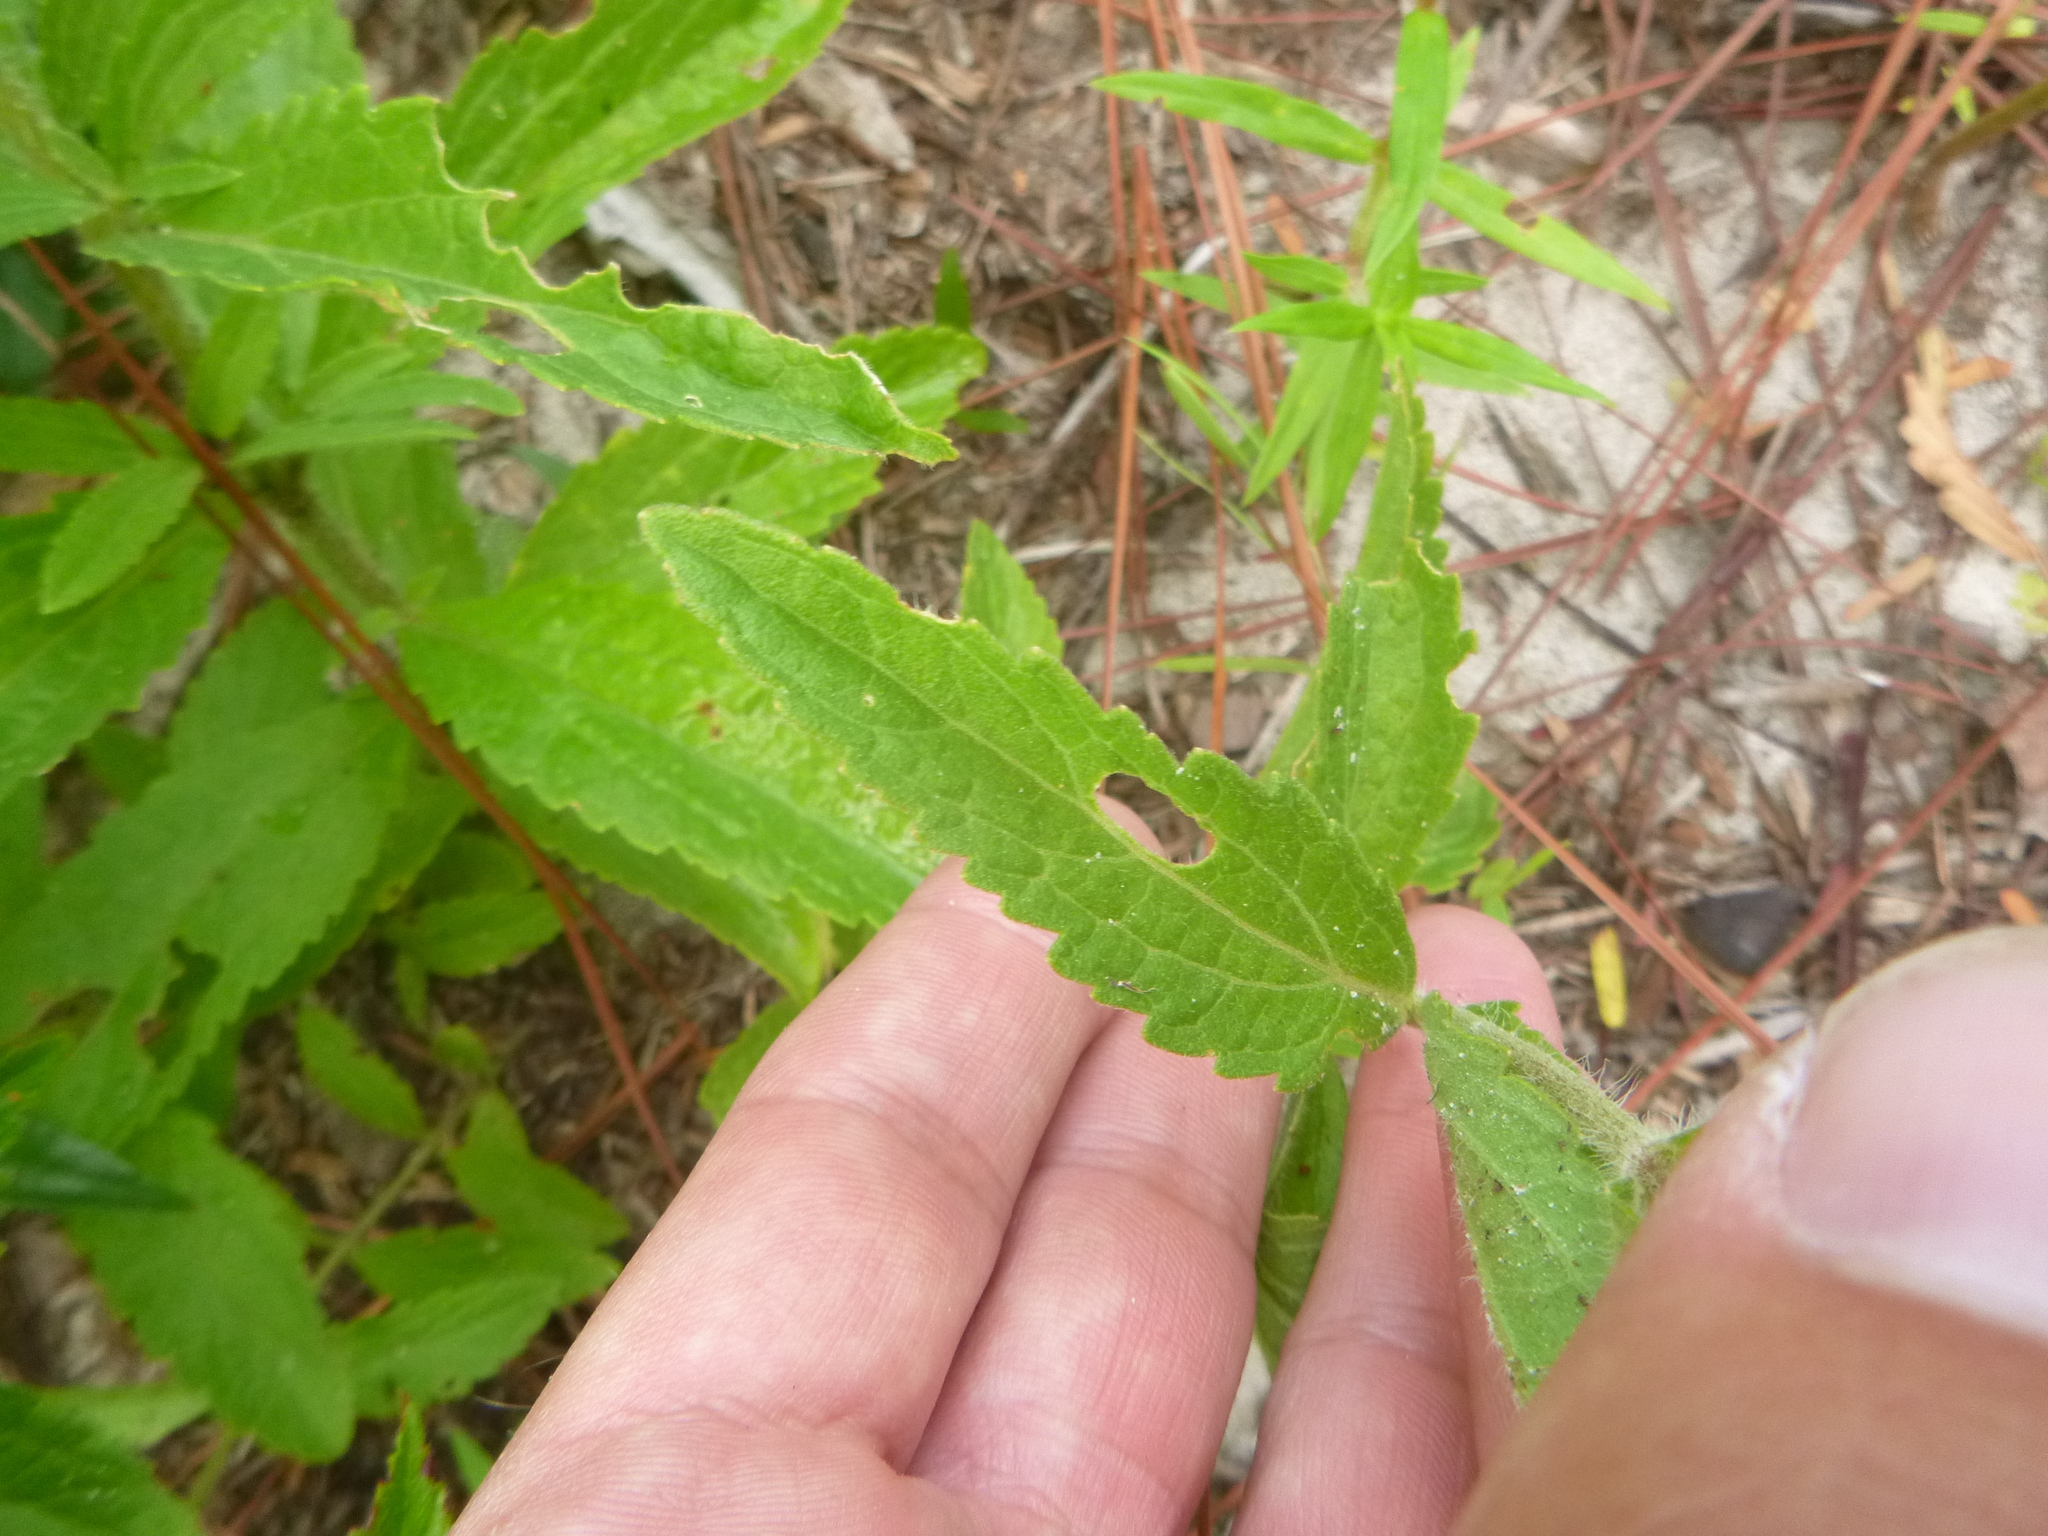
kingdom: Plantae
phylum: Tracheophyta
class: Magnoliopsida
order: Asterales
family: Asteraceae
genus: Eupatorium
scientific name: Eupatorium album
